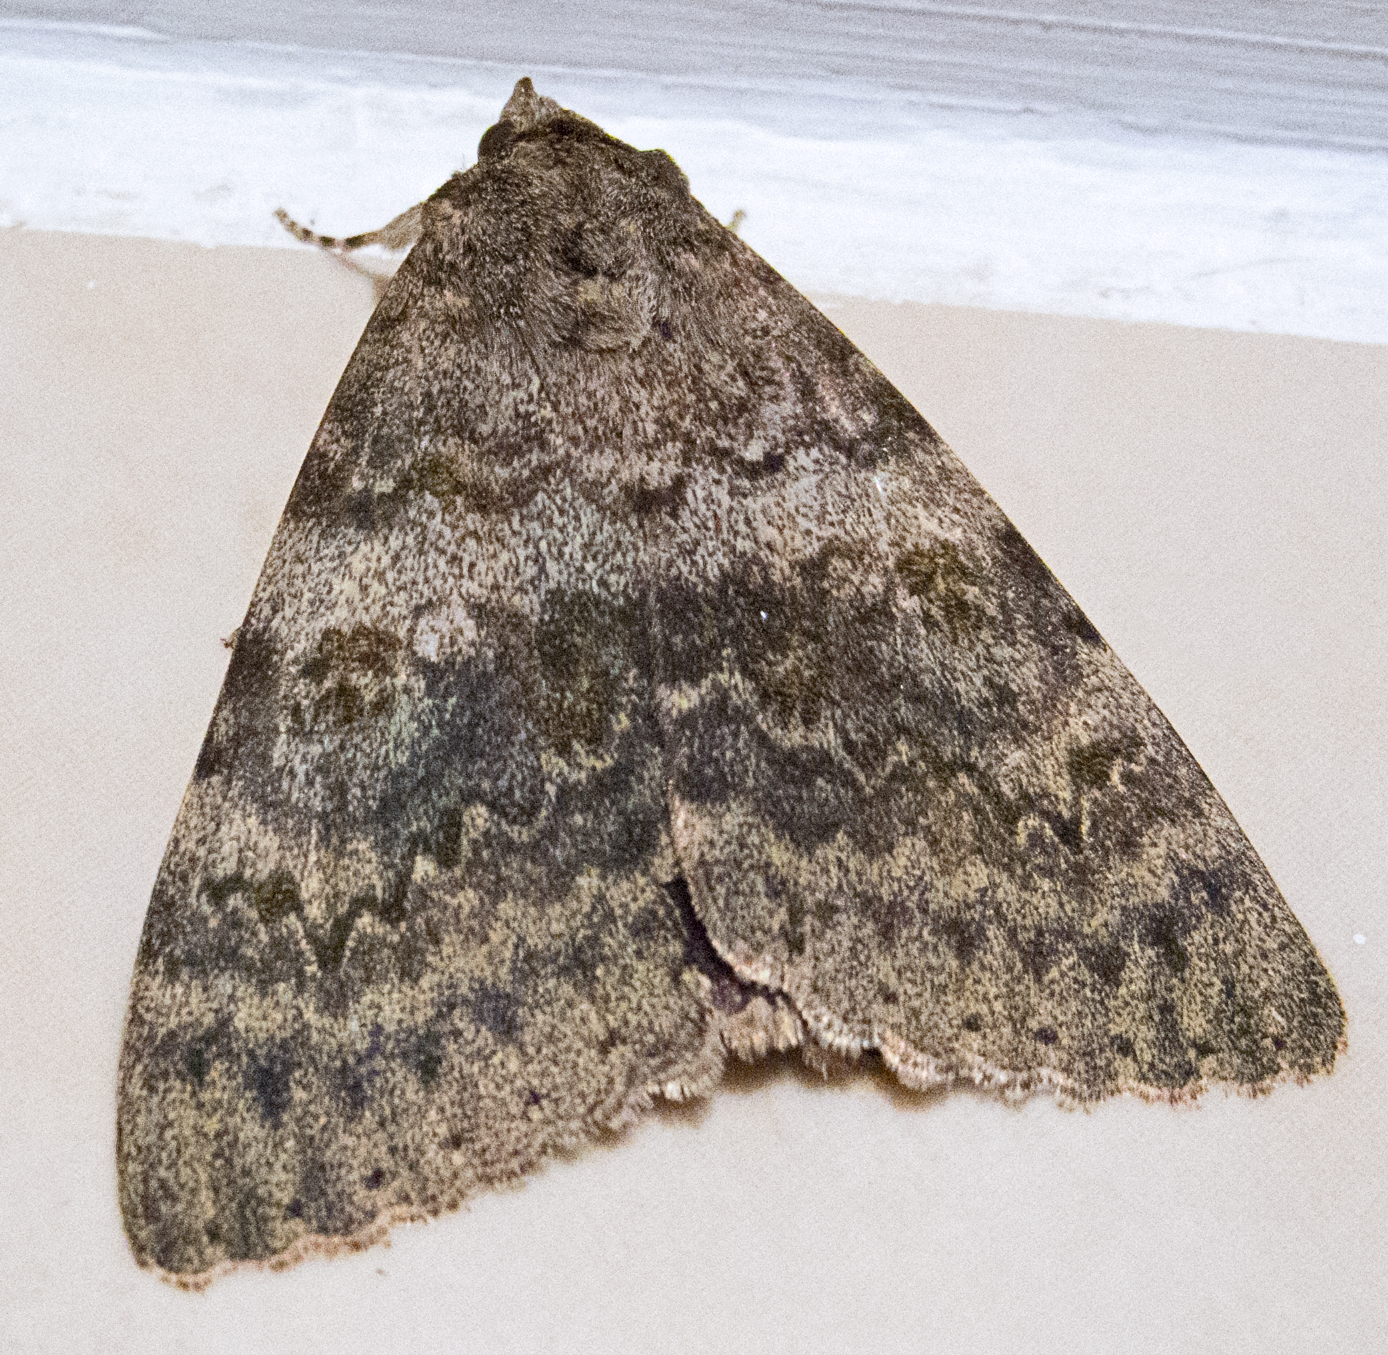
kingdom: Animalia
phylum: Arthropoda
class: Insecta
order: Lepidoptera
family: Erebidae
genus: Catocala
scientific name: Catocala elocata
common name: French red underwing
